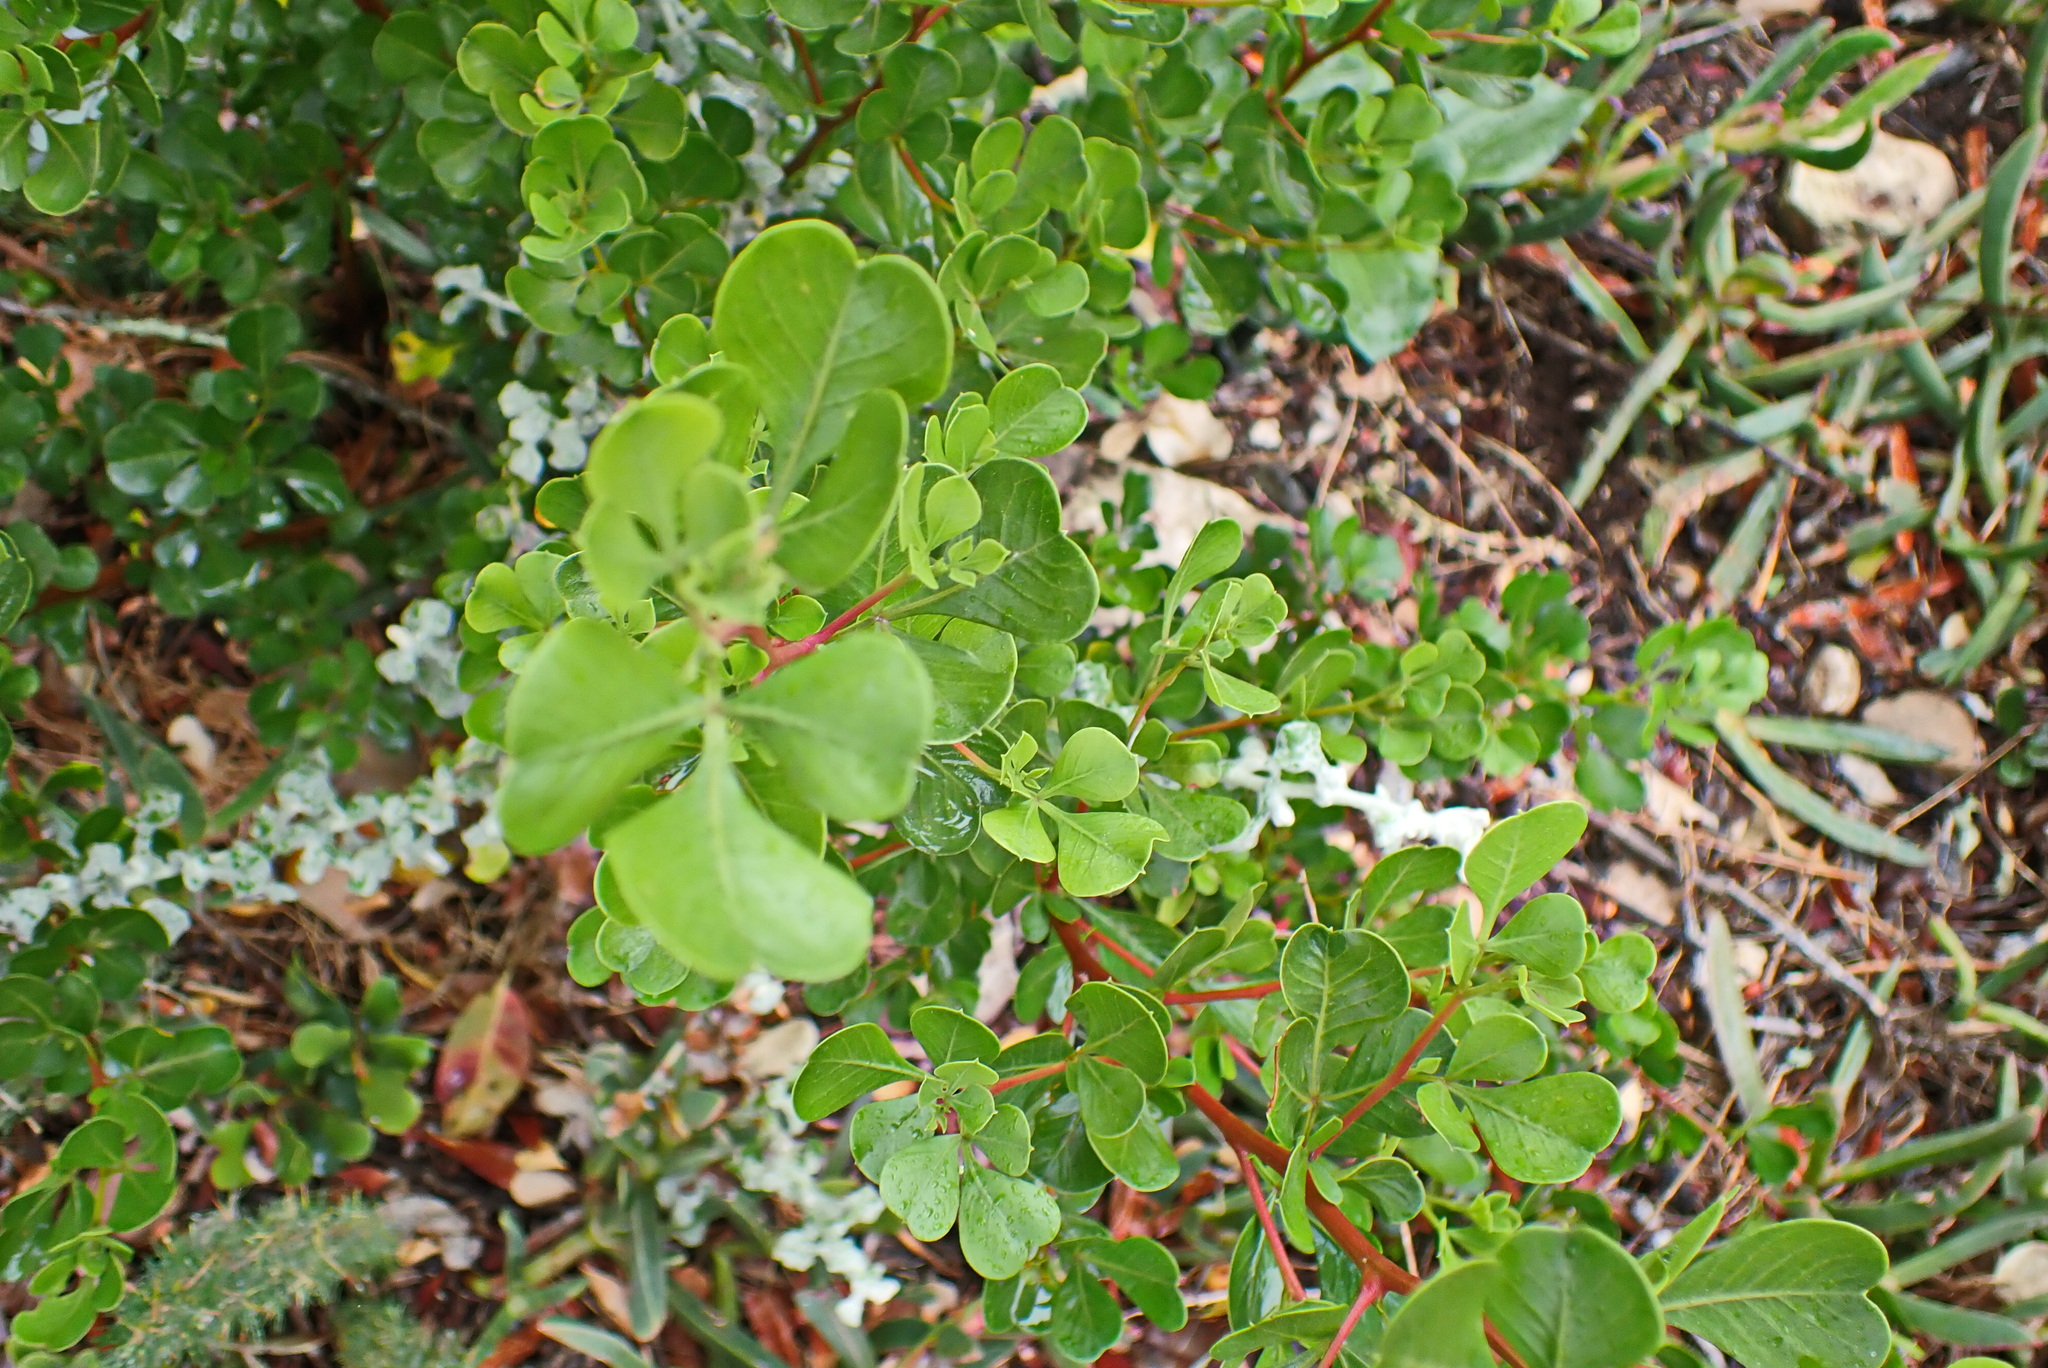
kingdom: Plantae
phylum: Tracheophyta
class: Magnoliopsida
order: Sapindales
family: Anacardiaceae
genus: Searsia
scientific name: Searsia glauca
